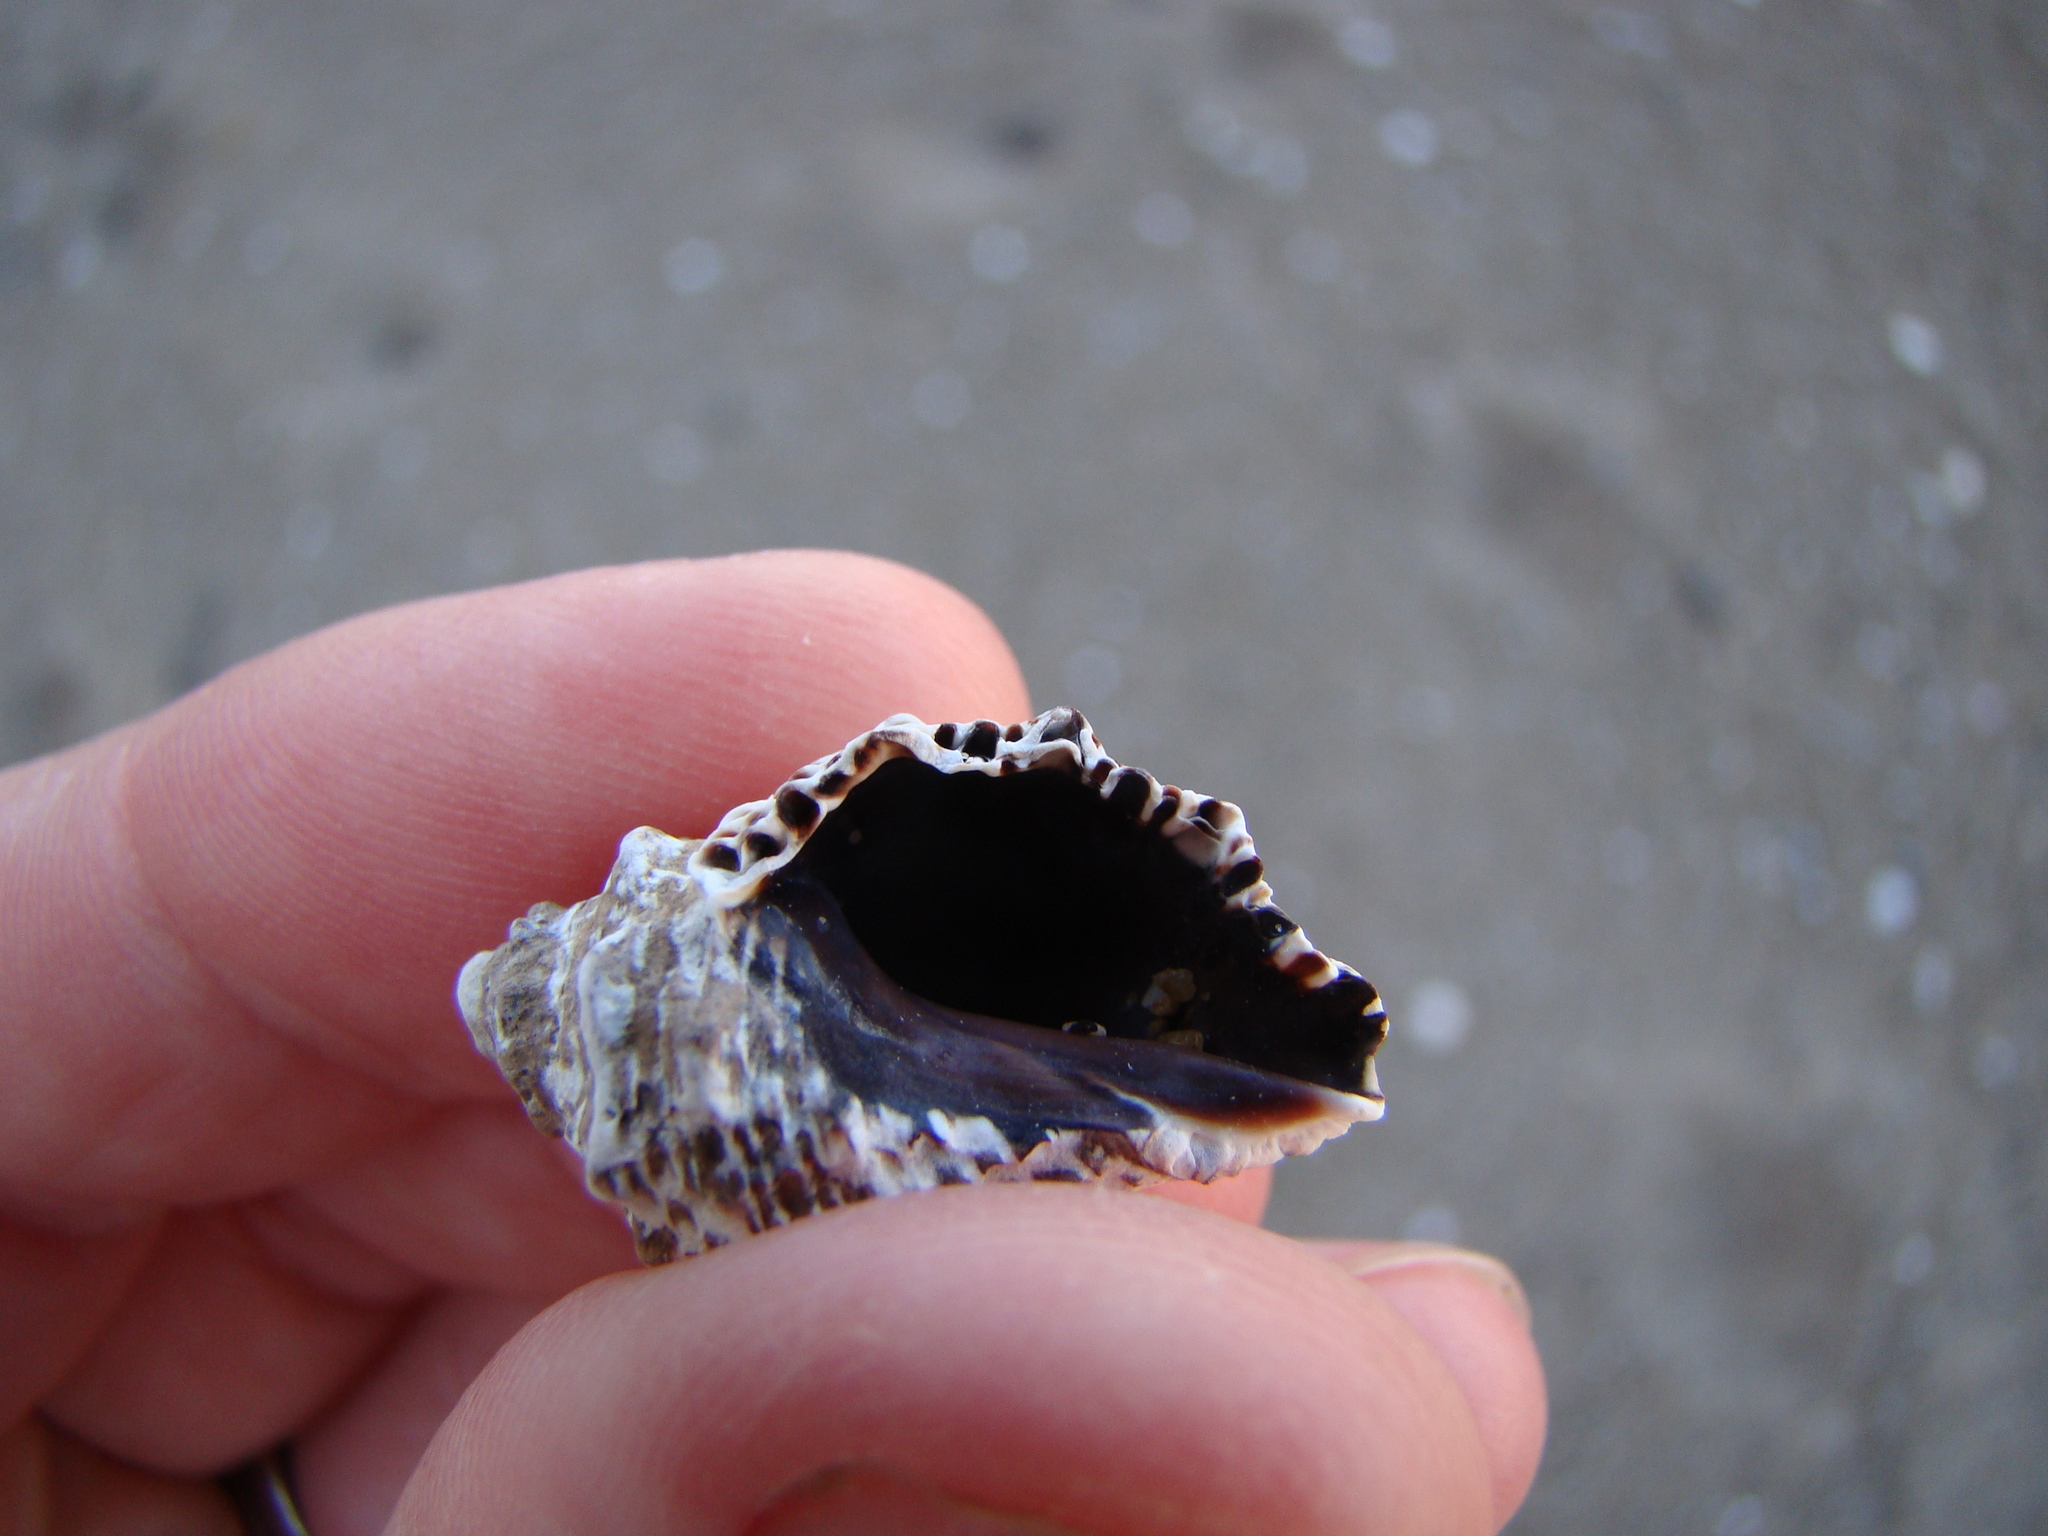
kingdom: Animalia
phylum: Mollusca
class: Gastropoda
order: Neogastropoda
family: Muricidae
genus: Haustrum
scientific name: Haustrum scobina
